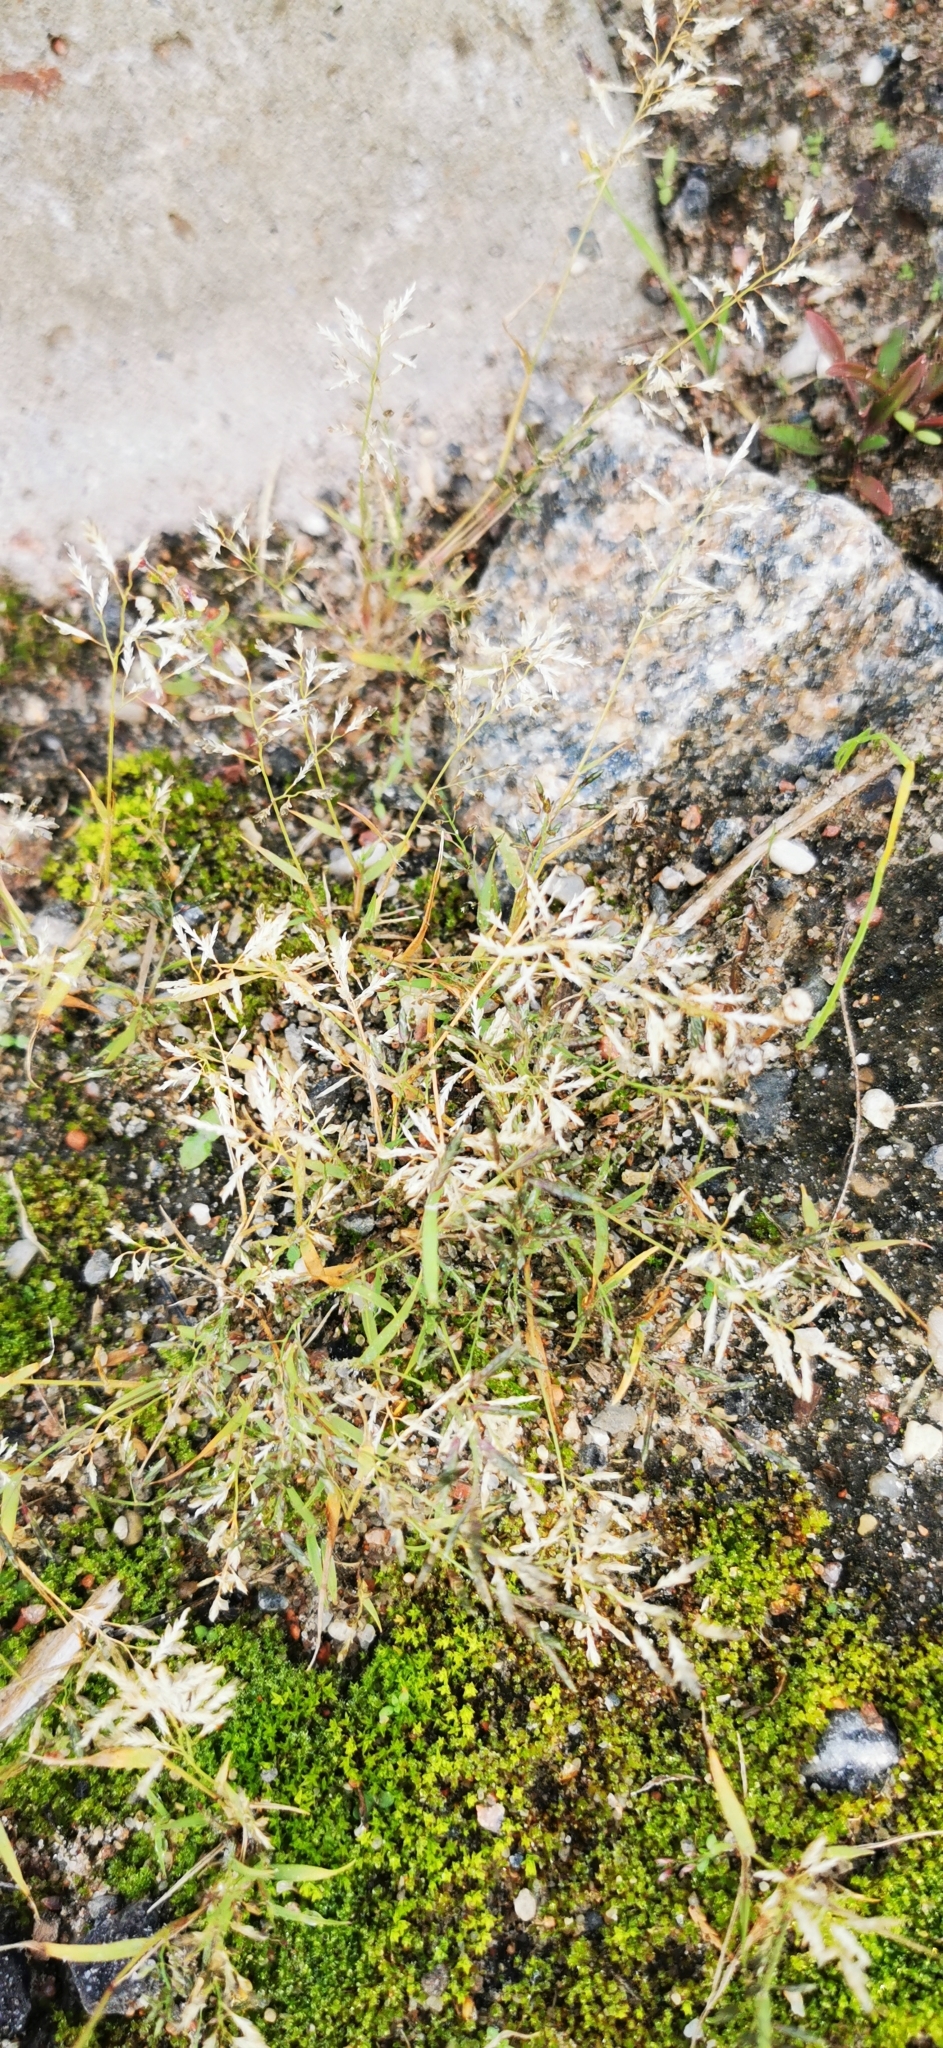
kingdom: Plantae
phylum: Tracheophyta
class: Liliopsida
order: Poales
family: Poaceae
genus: Eragrostis
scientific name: Eragrostis minor
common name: Small love-grass
